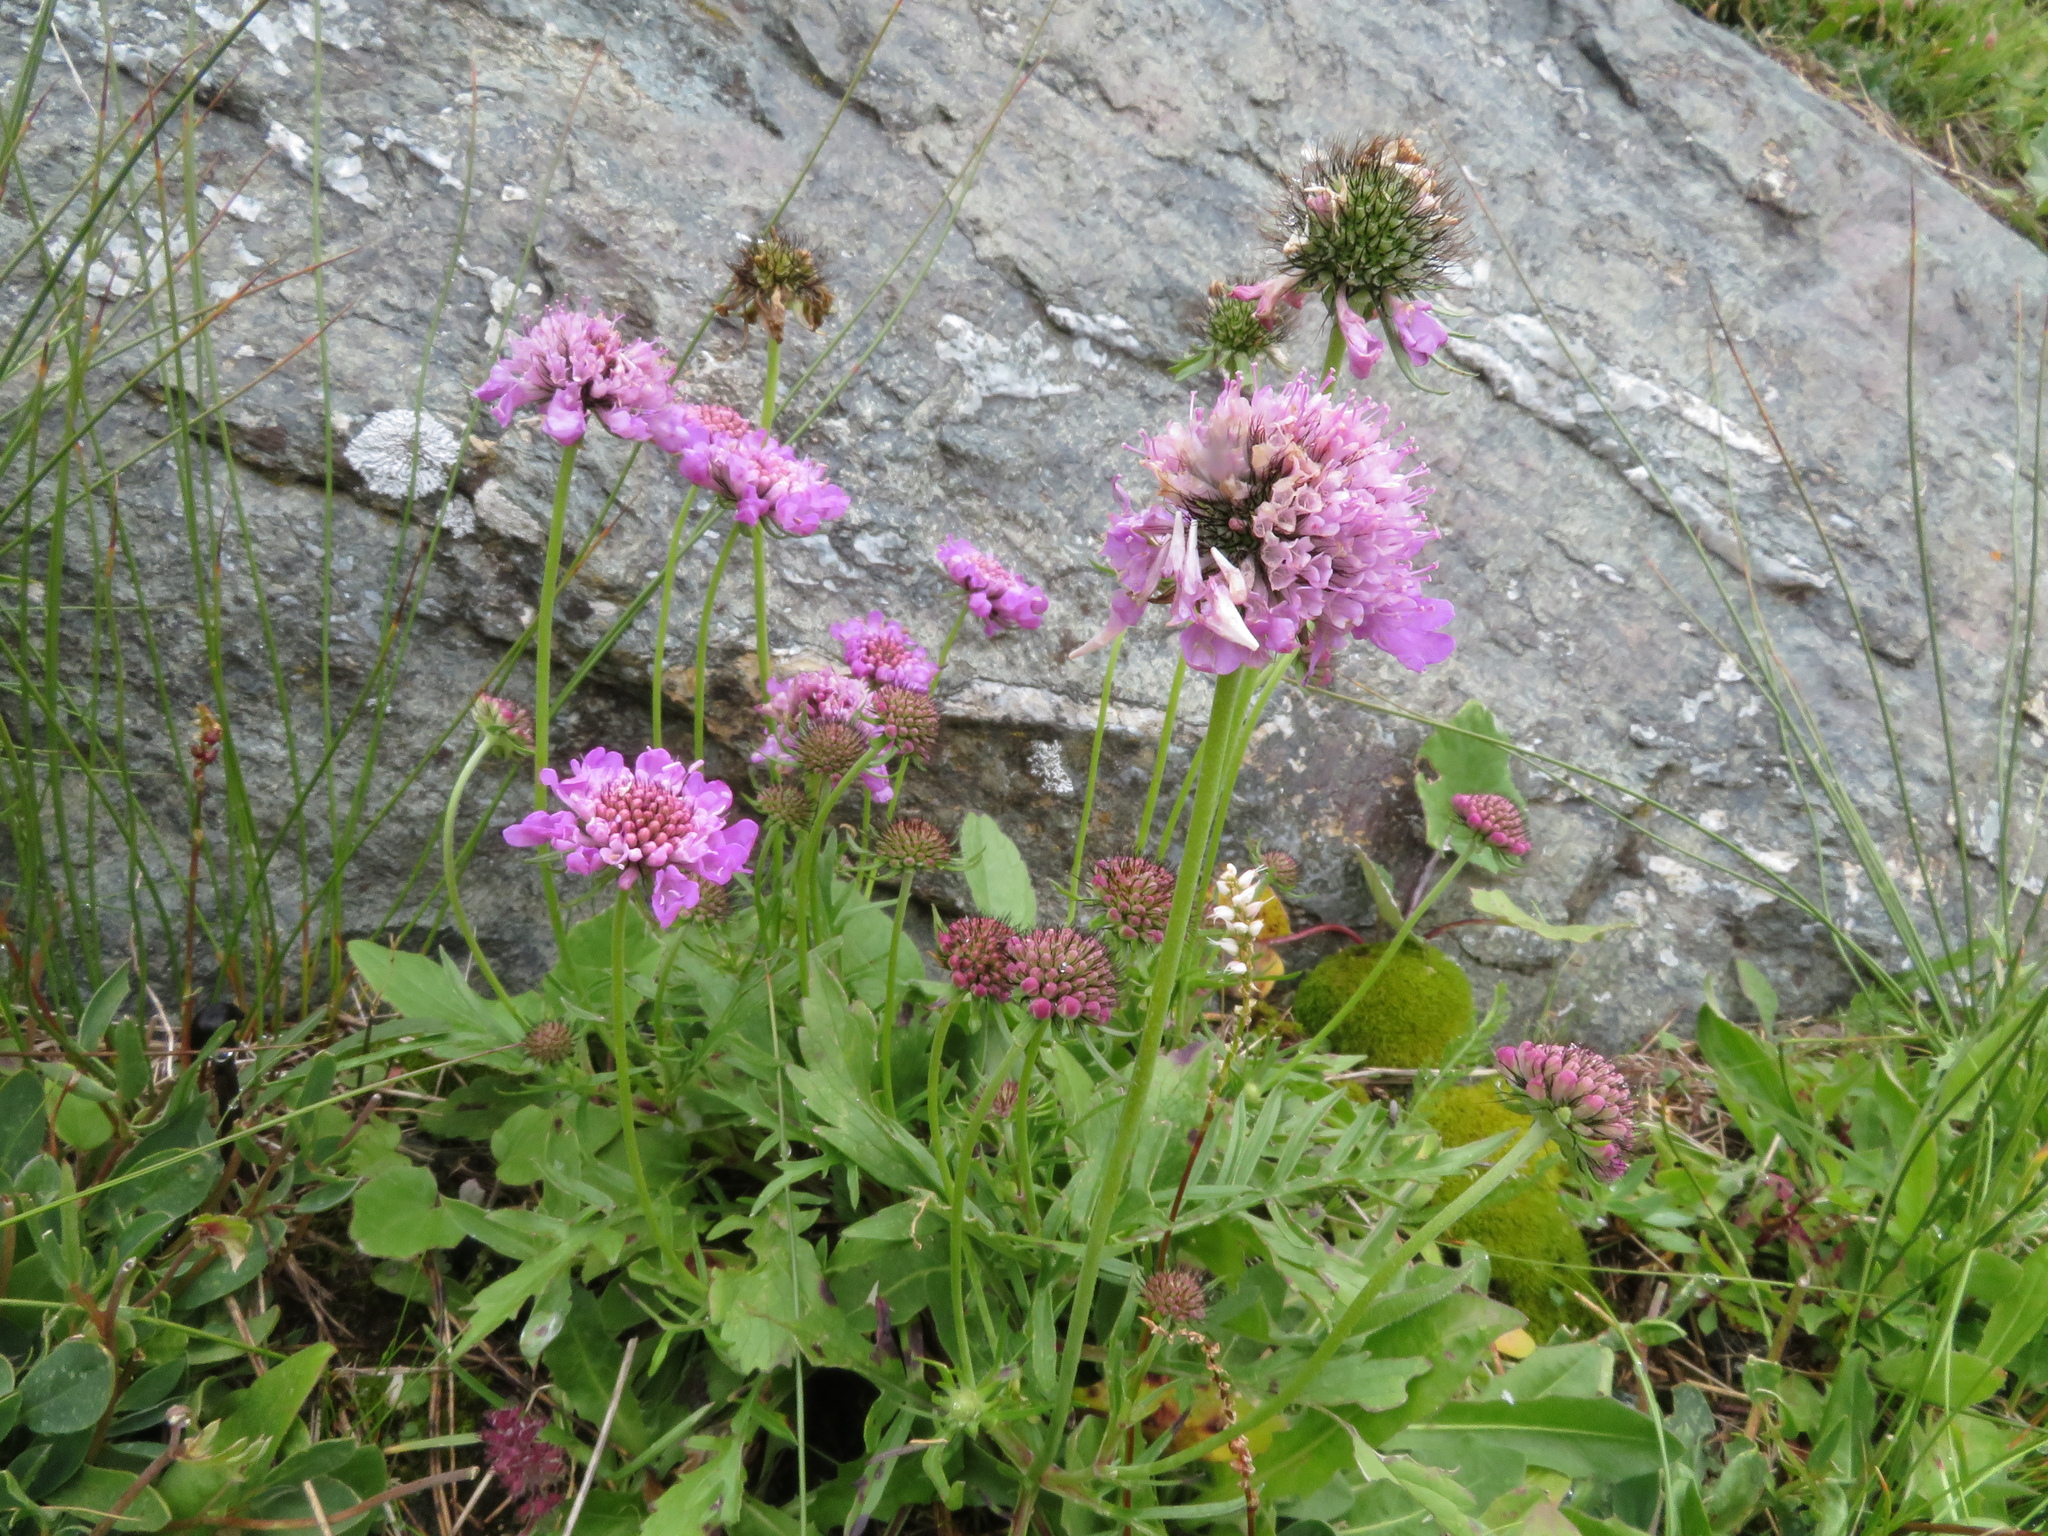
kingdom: Plantae
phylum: Tracheophyta
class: Magnoliopsida
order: Dipsacales
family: Caprifoliaceae
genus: Scabiosa
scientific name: Scabiosa lucida
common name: Shining scabious
